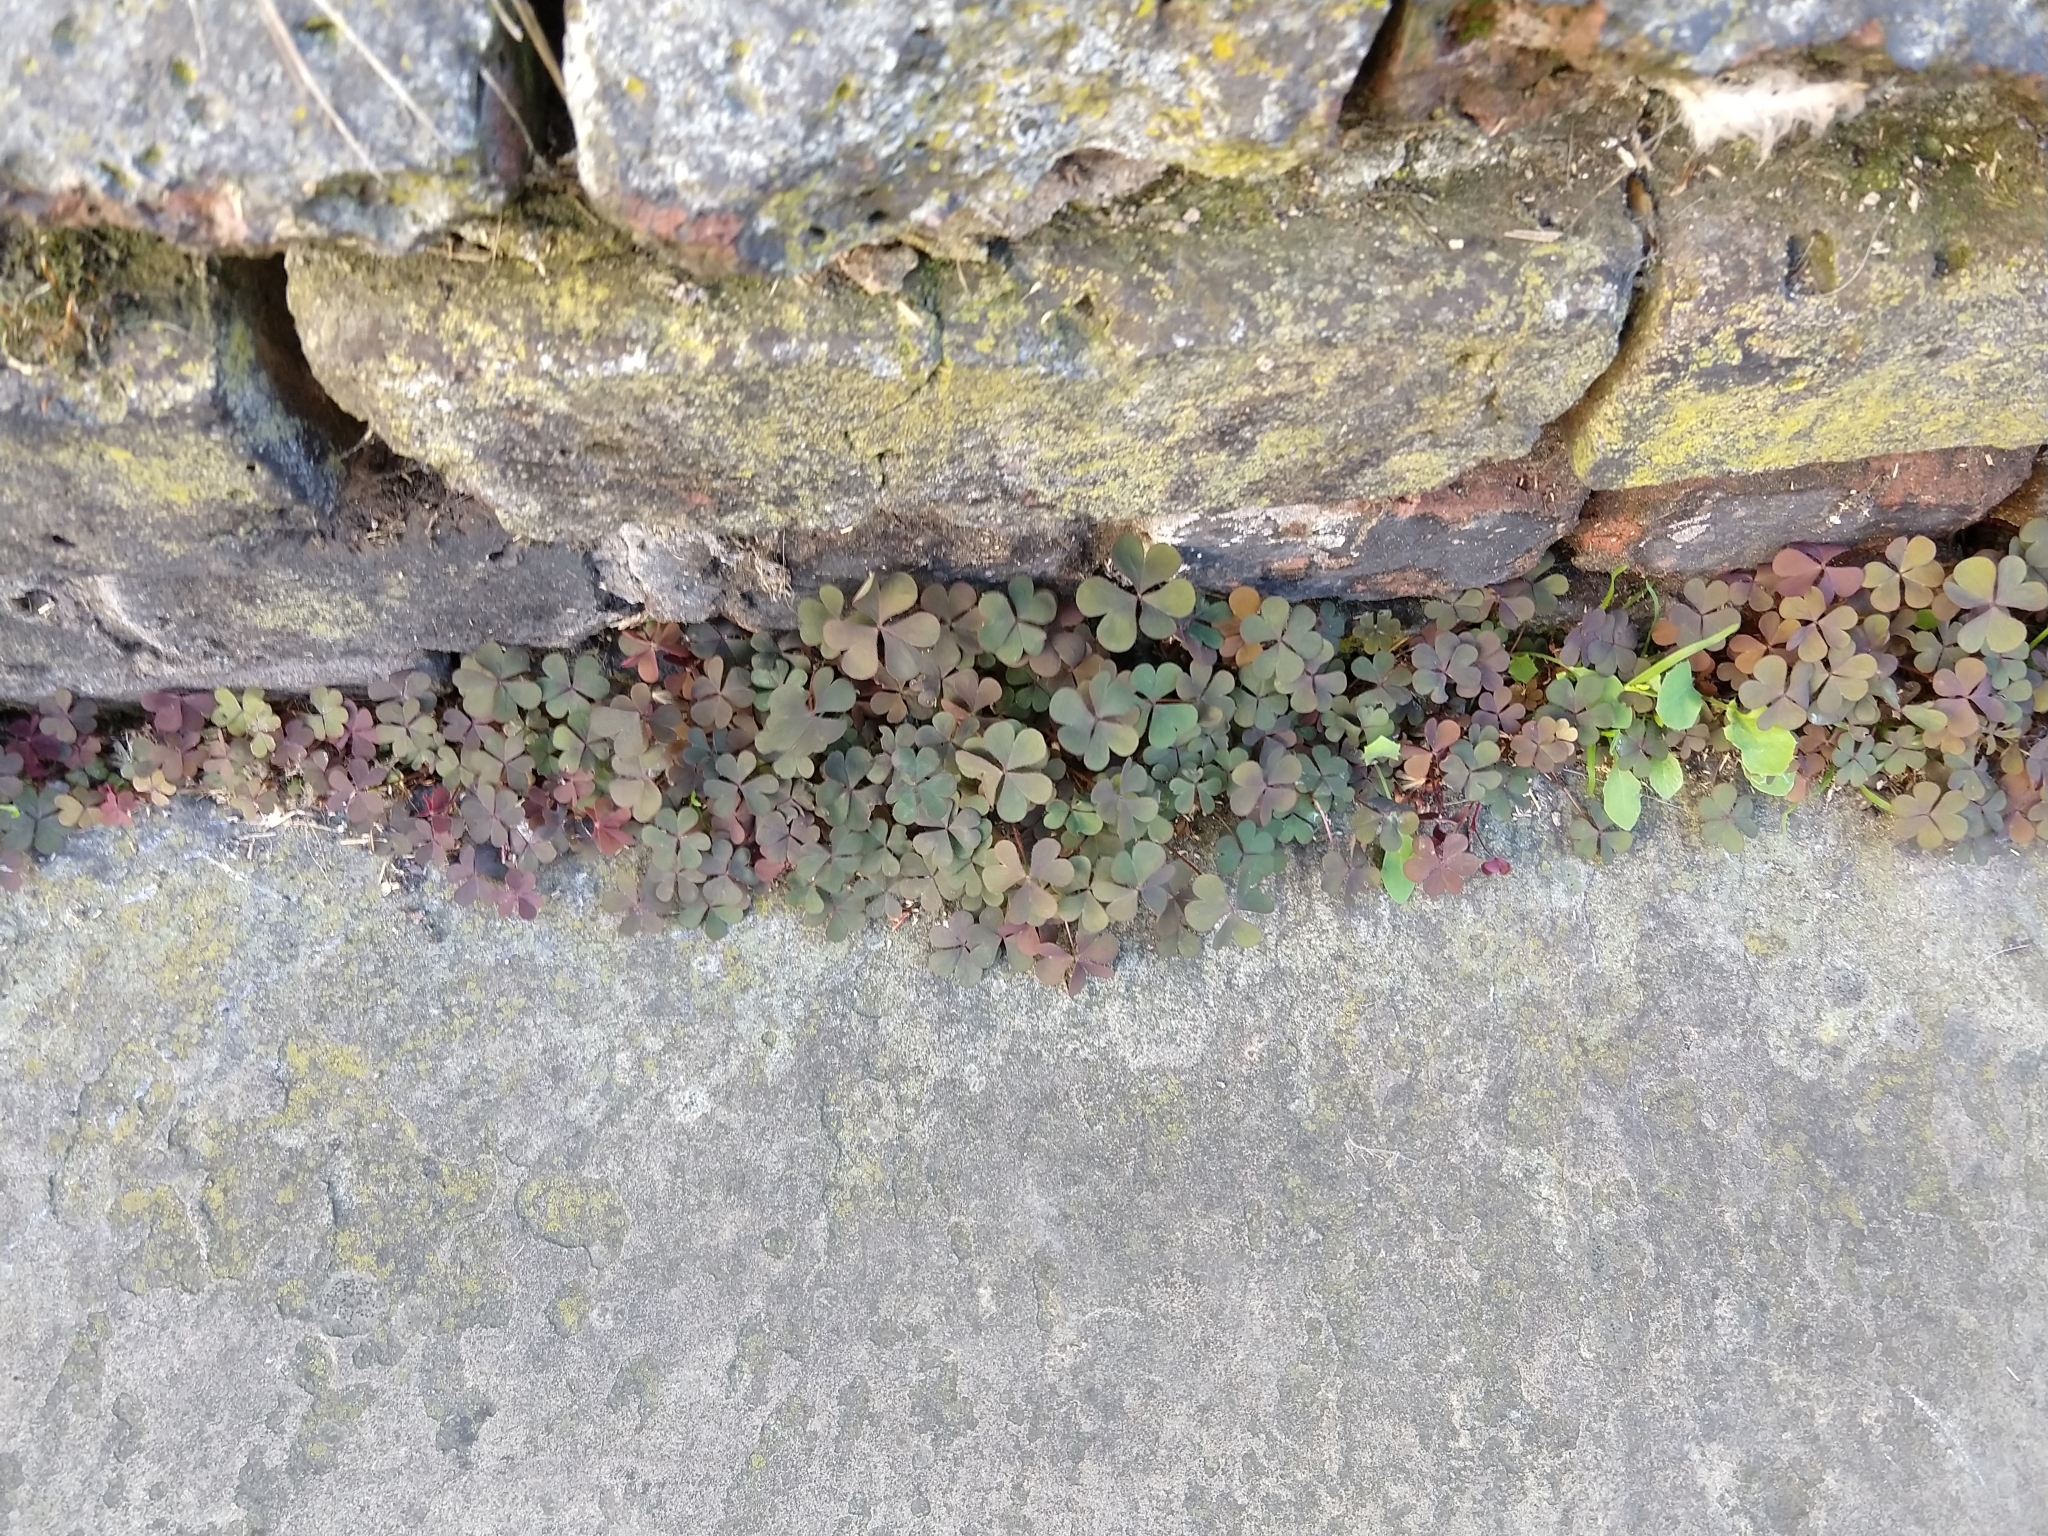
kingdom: Plantae
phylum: Tracheophyta
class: Magnoliopsida
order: Oxalidales
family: Oxalidaceae
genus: Oxalis
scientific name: Oxalis corniculata
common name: Procumbent yellow-sorrel
